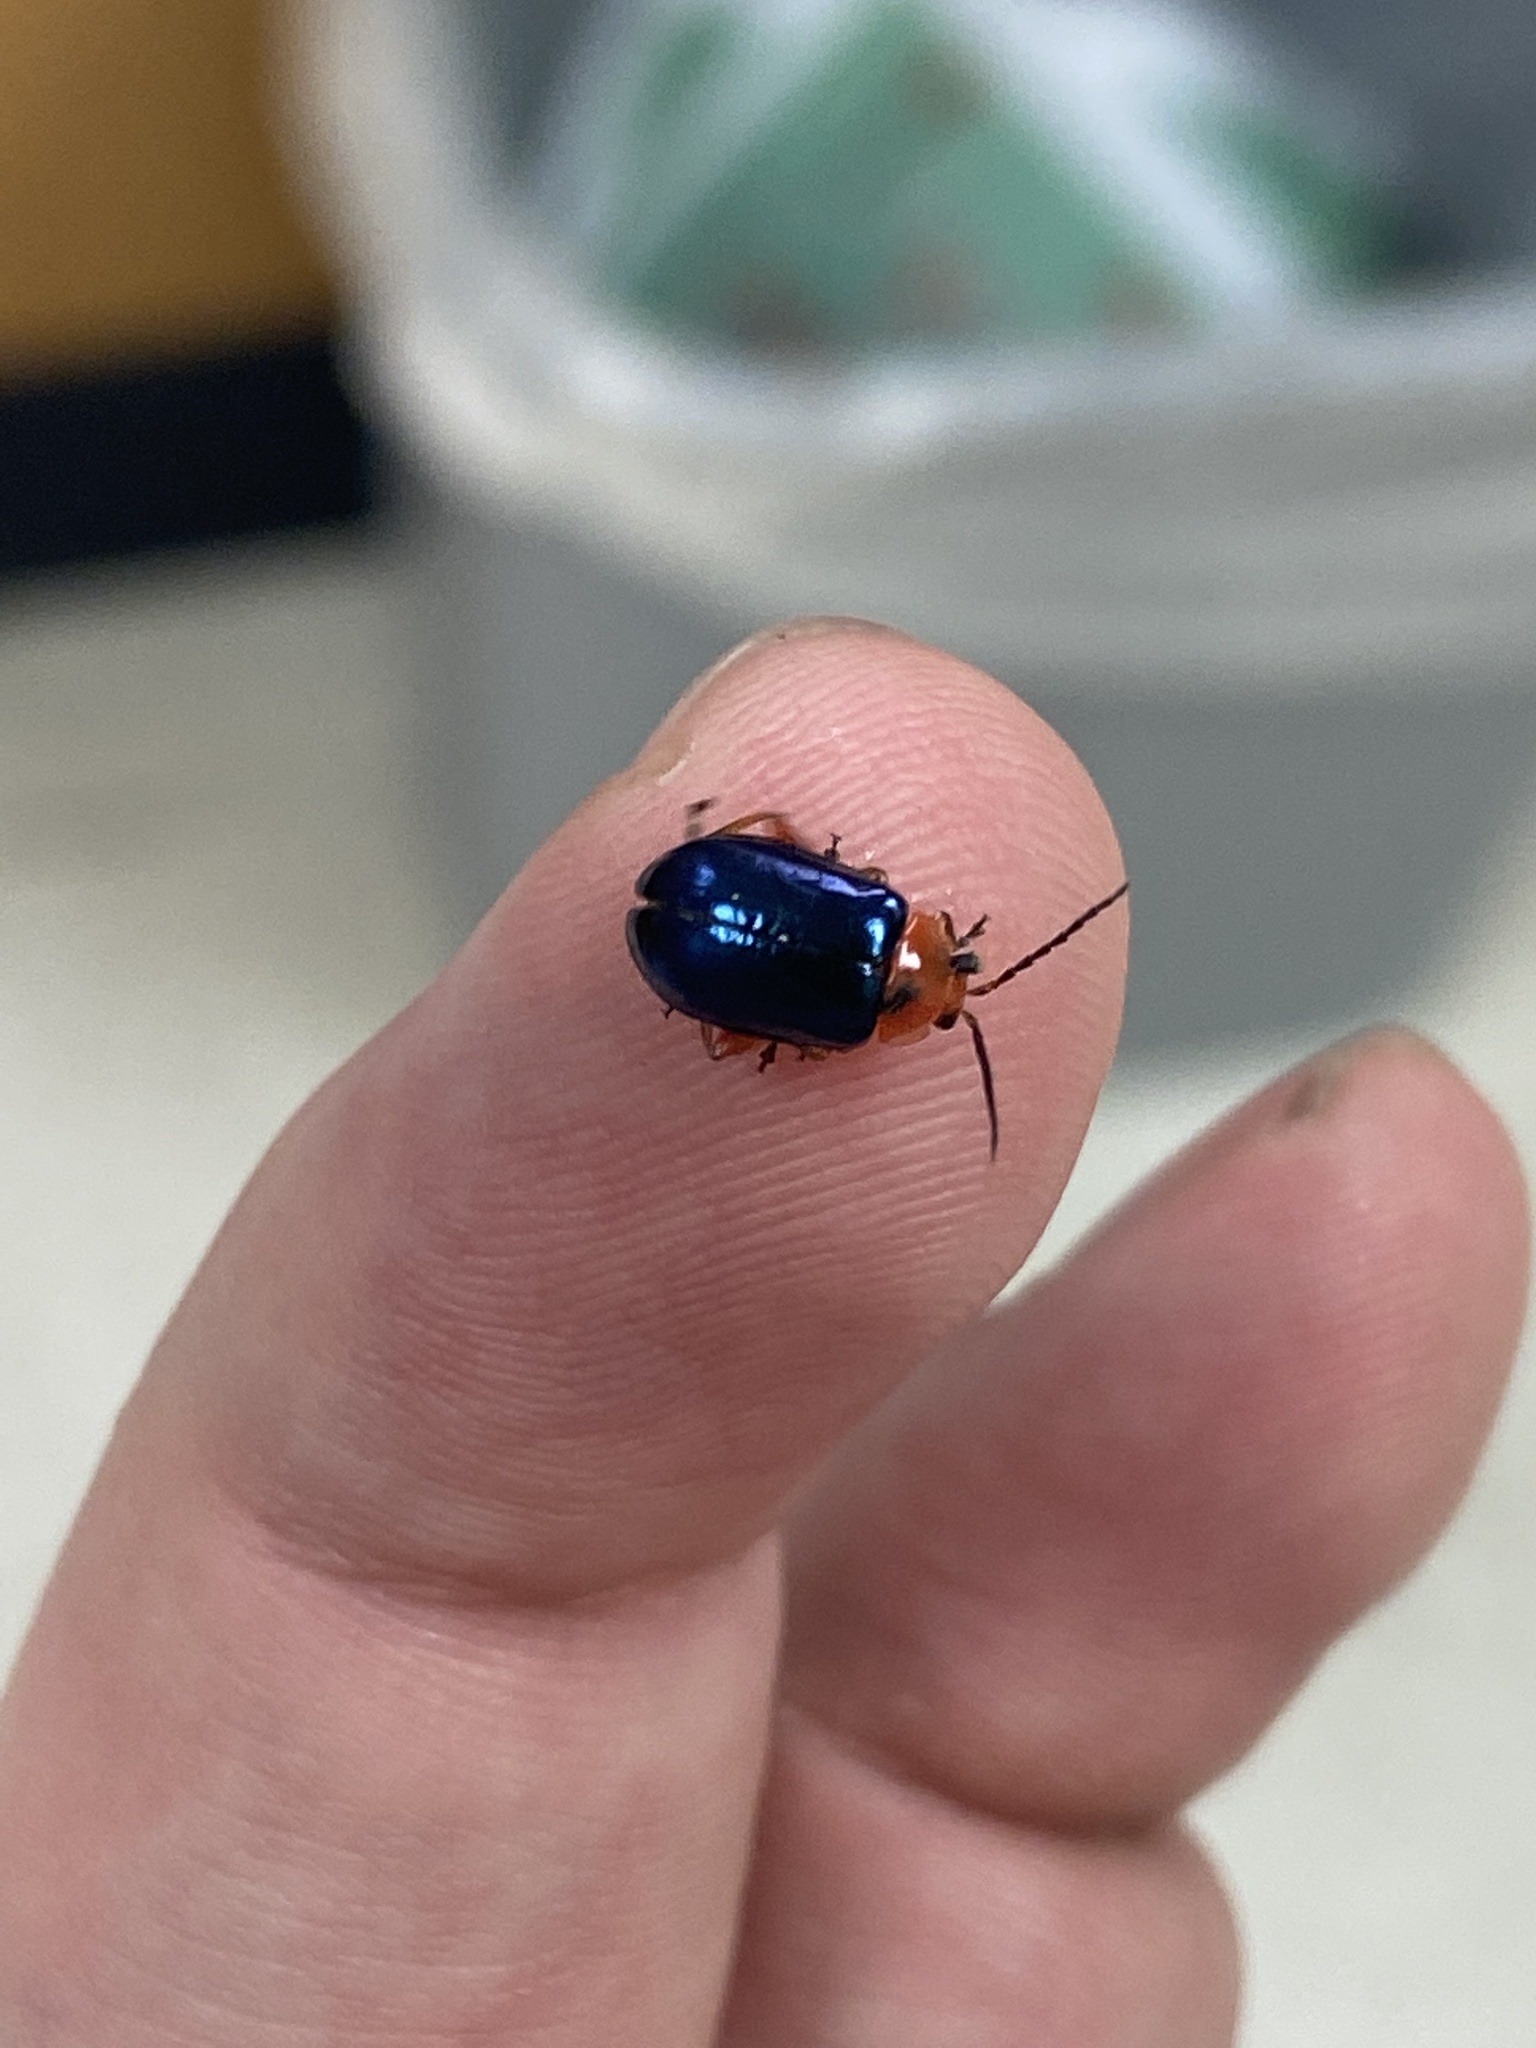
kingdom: Animalia
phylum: Arthropoda
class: Insecta
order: Coleoptera
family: Chrysomelidae
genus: Asphaera
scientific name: Asphaera lustrans
